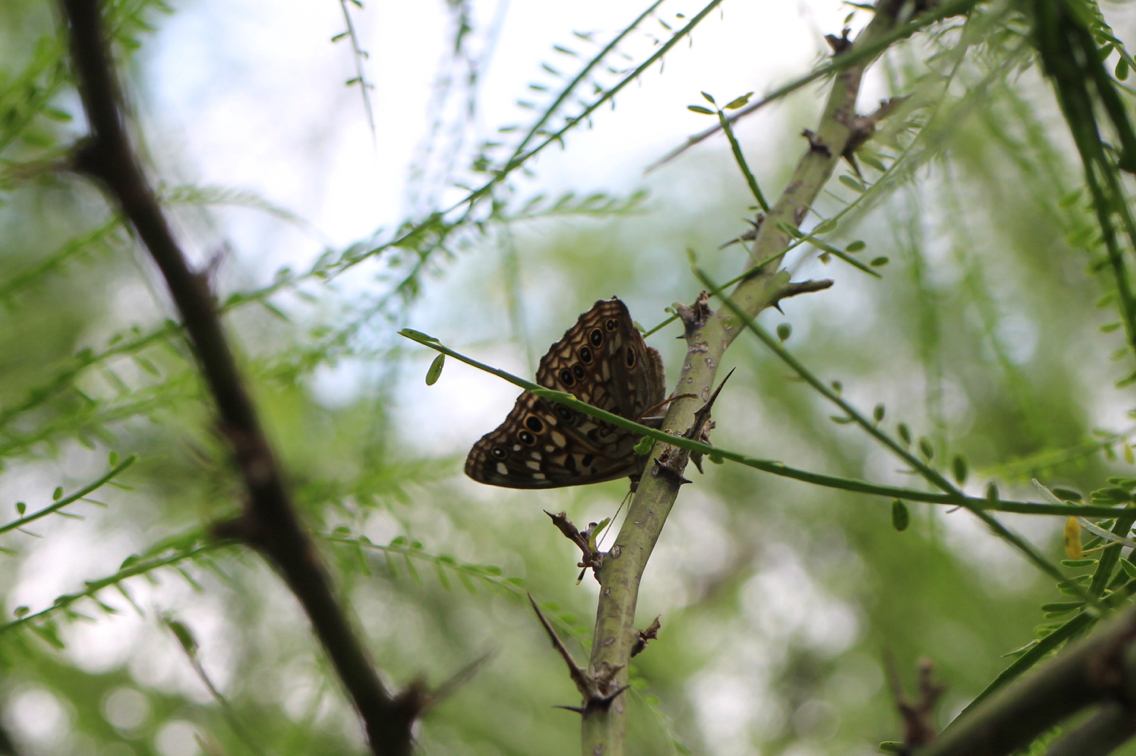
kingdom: Animalia
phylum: Arthropoda
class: Insecta
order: Lepidoptera
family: Nymphalidae
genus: Asterocampa
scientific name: Asterocampa celtis
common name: Hackberry emperor
